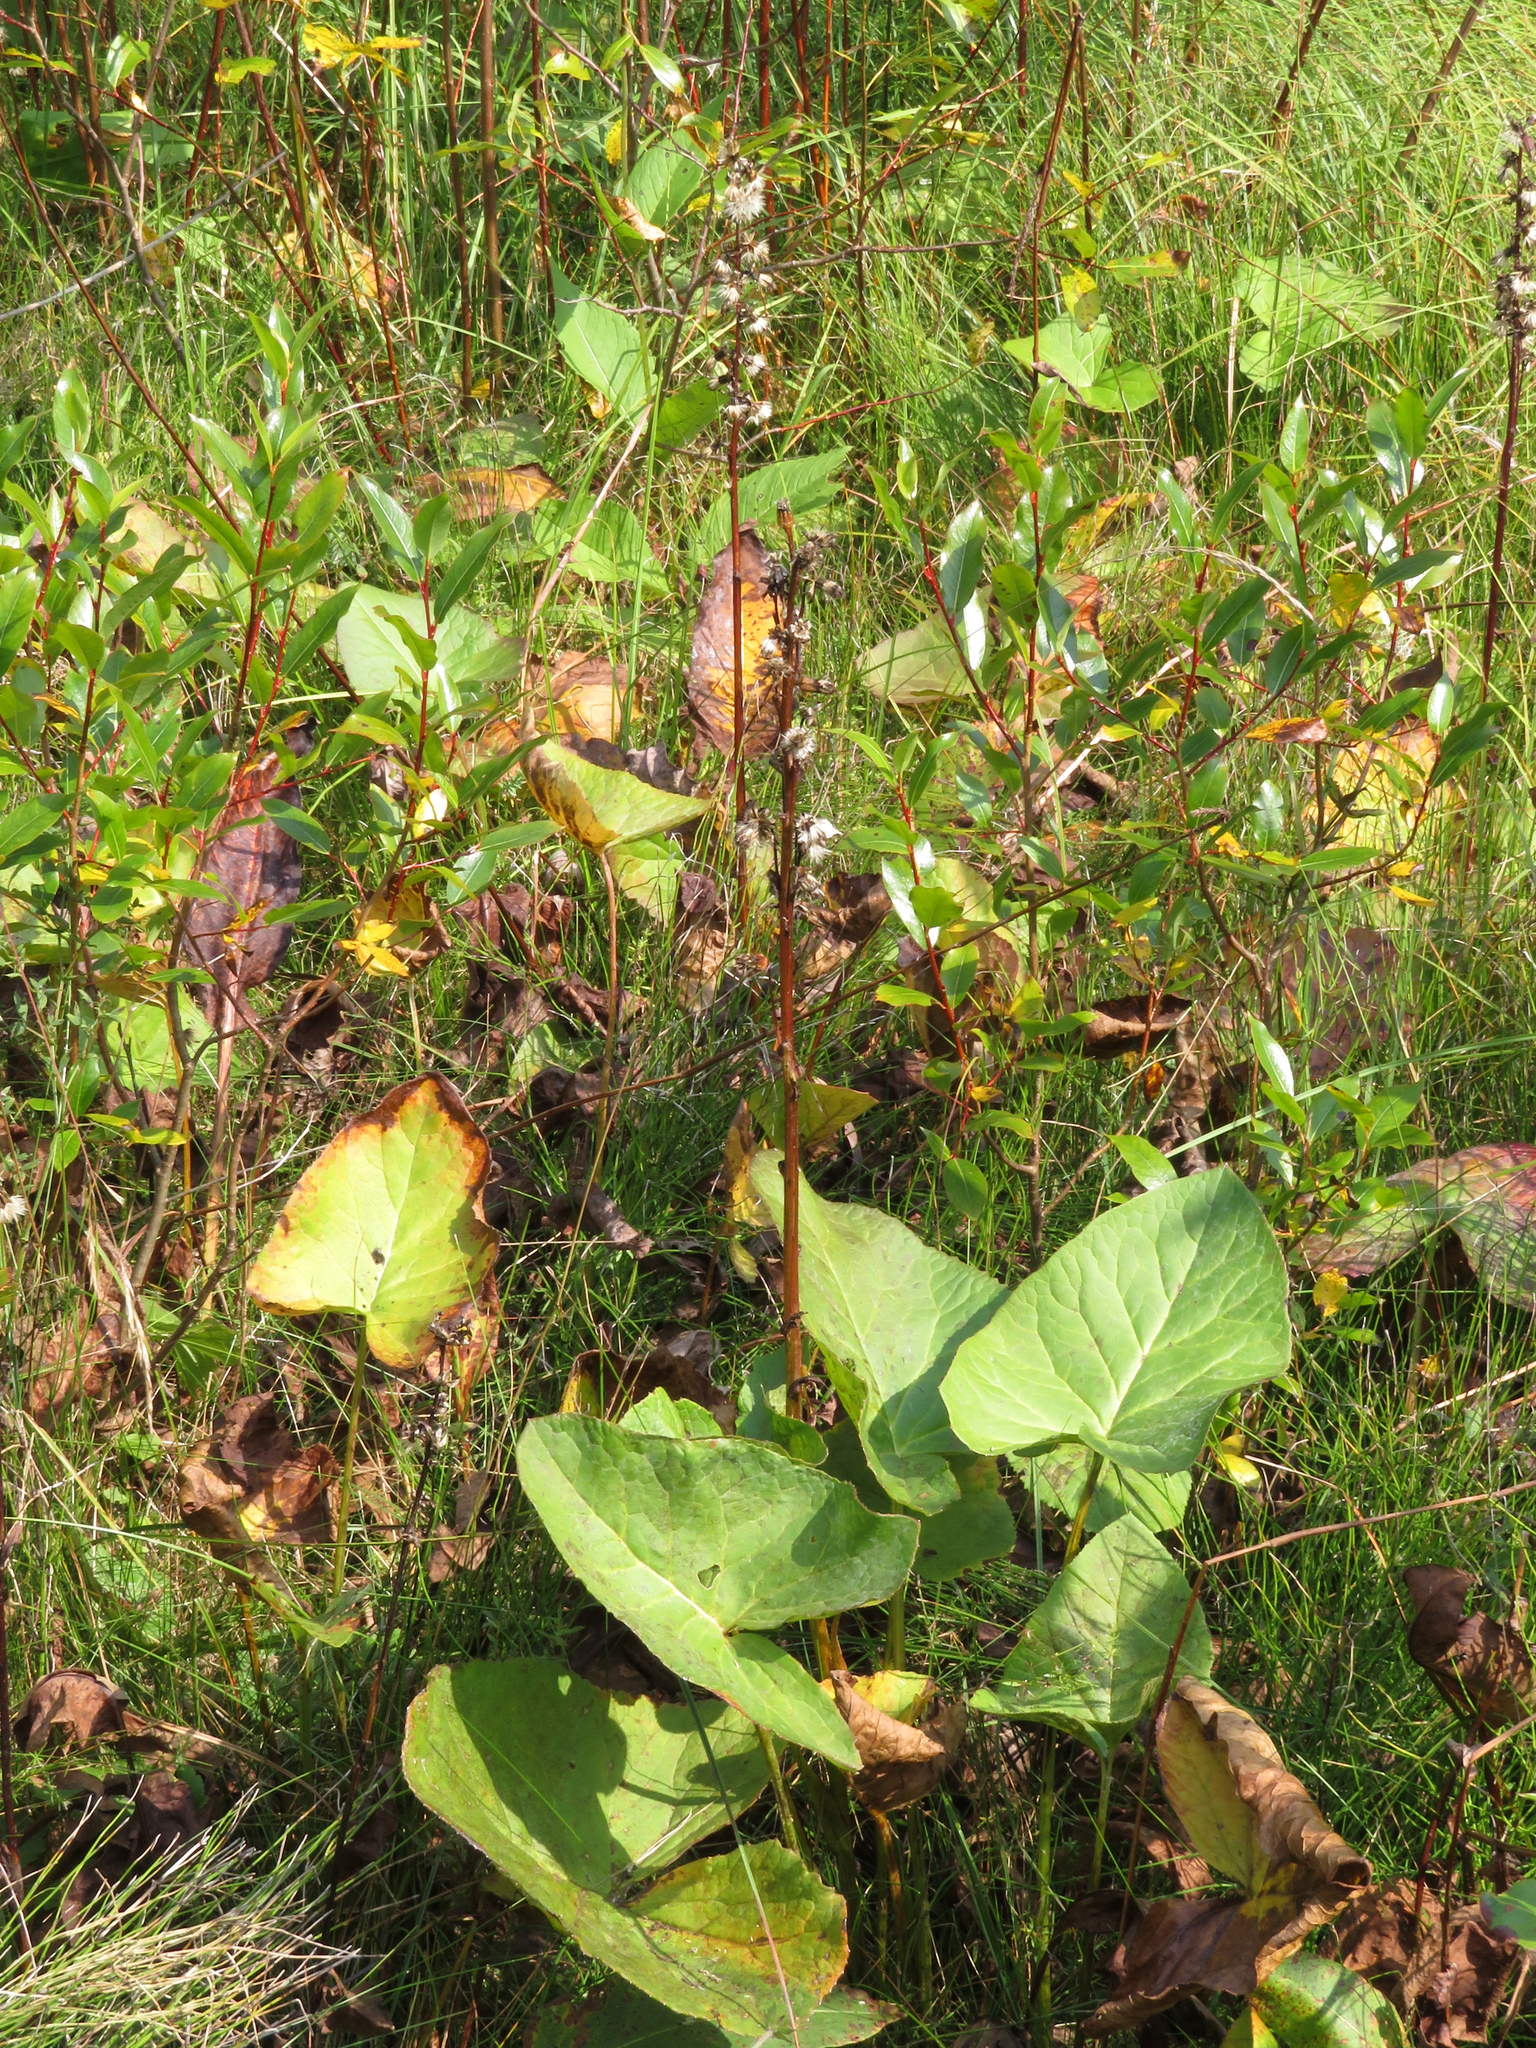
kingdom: Plantae
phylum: Tracheophyta
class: Magnoliopsida
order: Asterales
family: Asteraceae
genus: Ligularia
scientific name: Ligularia sibirica
